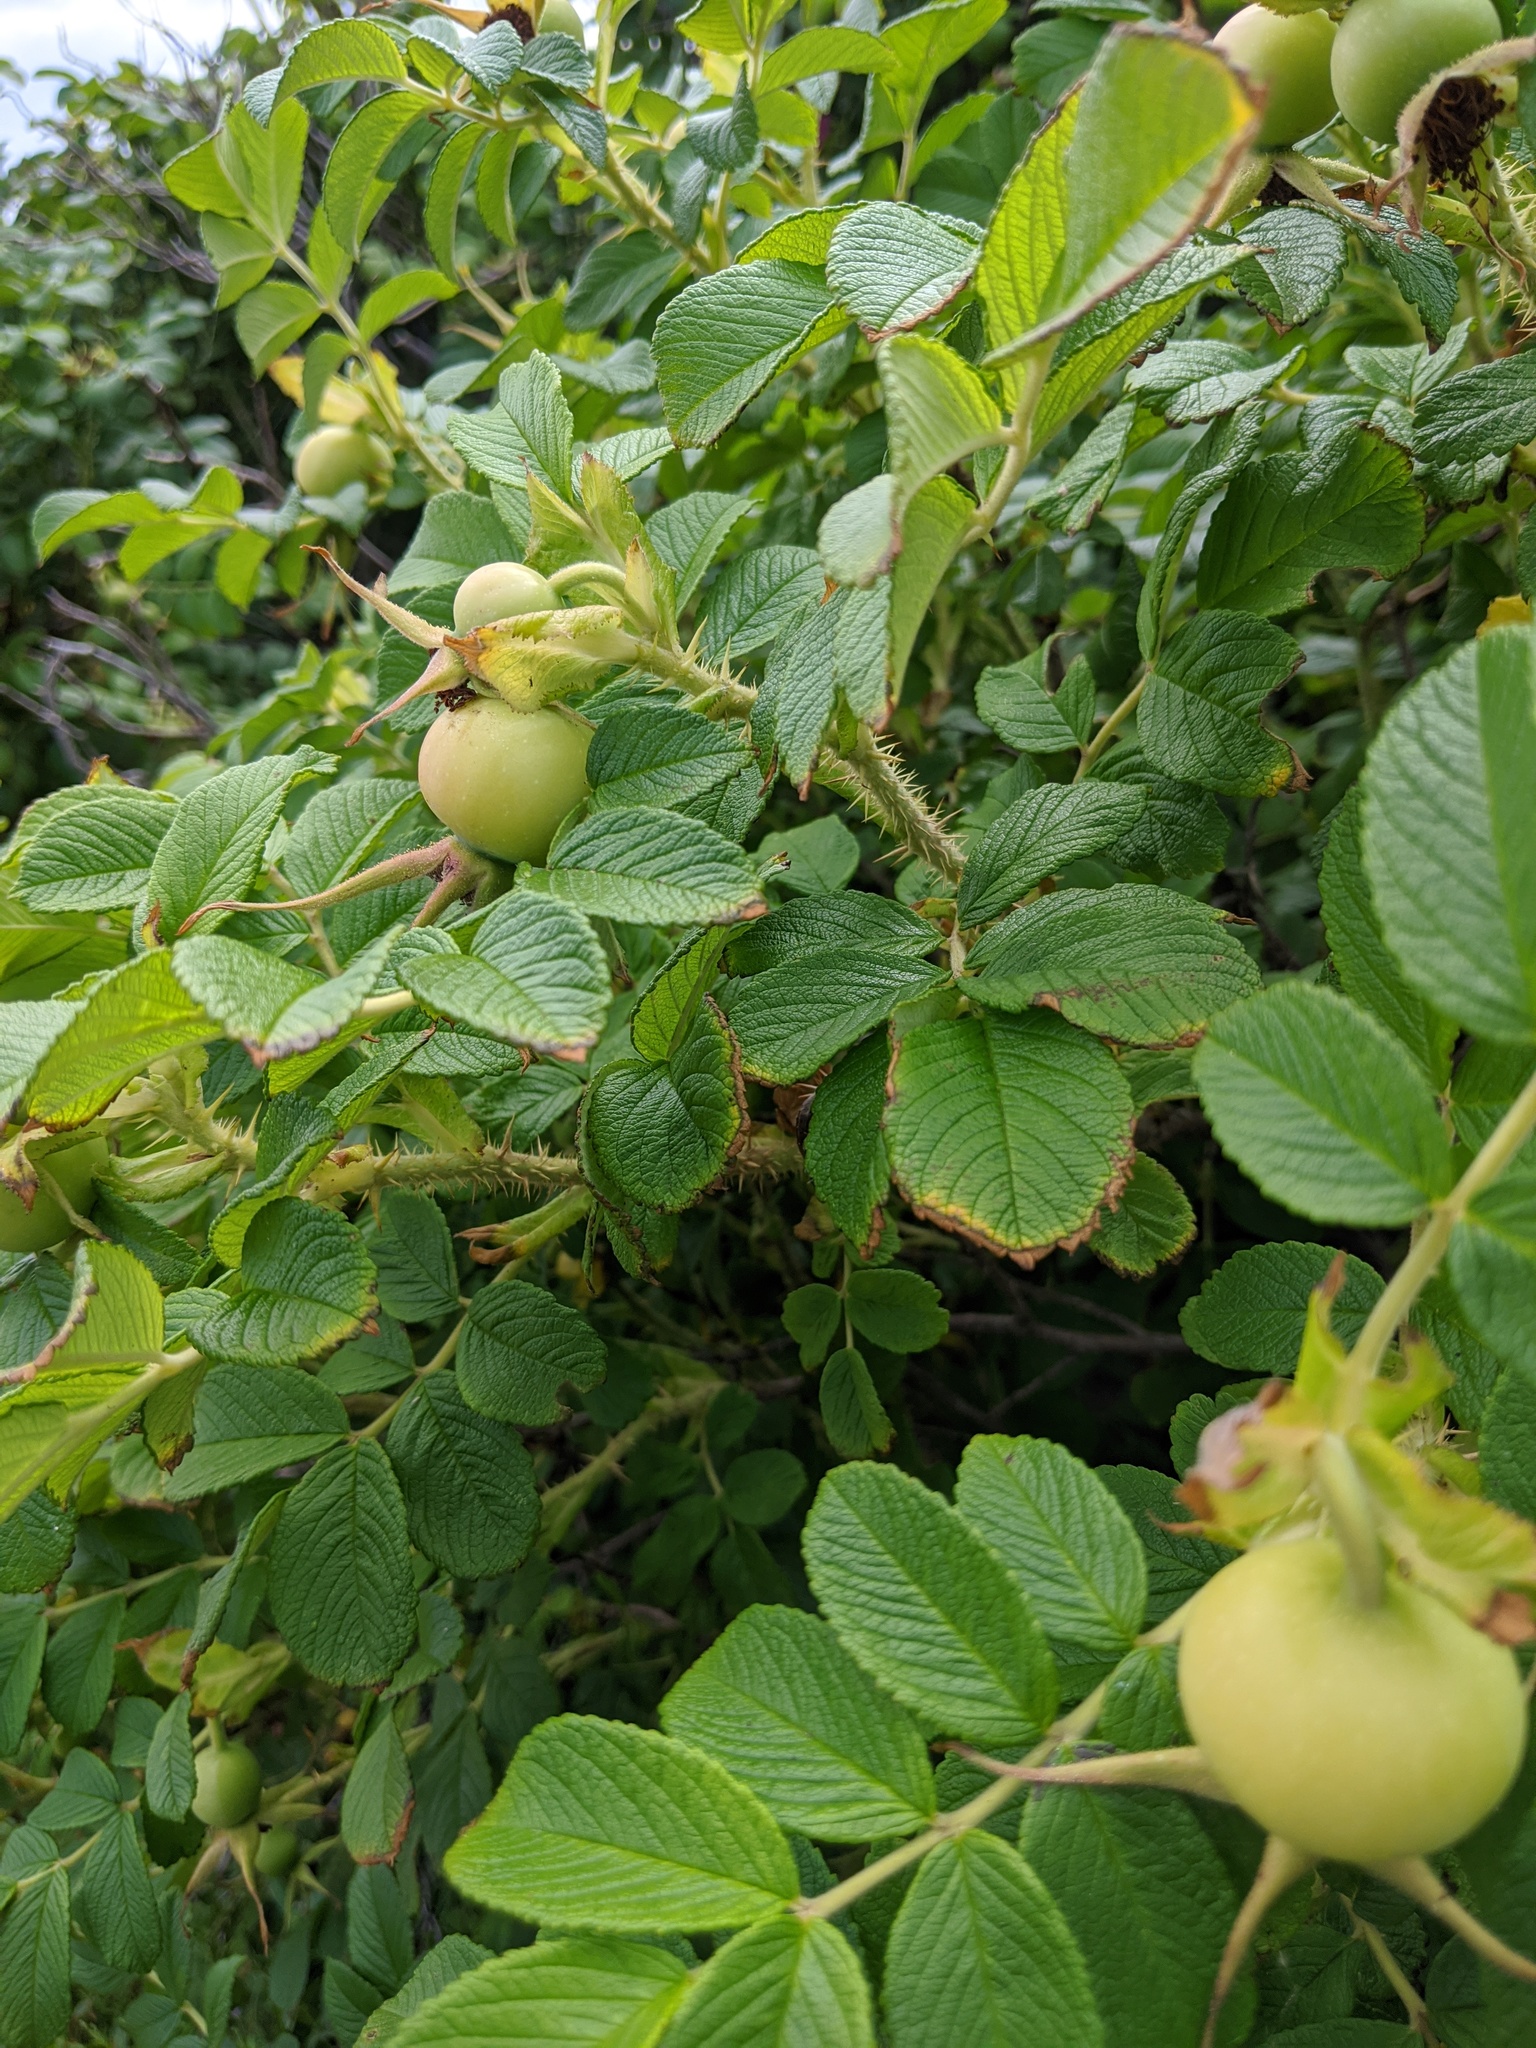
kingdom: Plantae
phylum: Tracheophyta
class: Magnoliopsida
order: Rosales
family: Rosaceae
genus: Rosa
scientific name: Rosa rugosa
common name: Japanese rose
